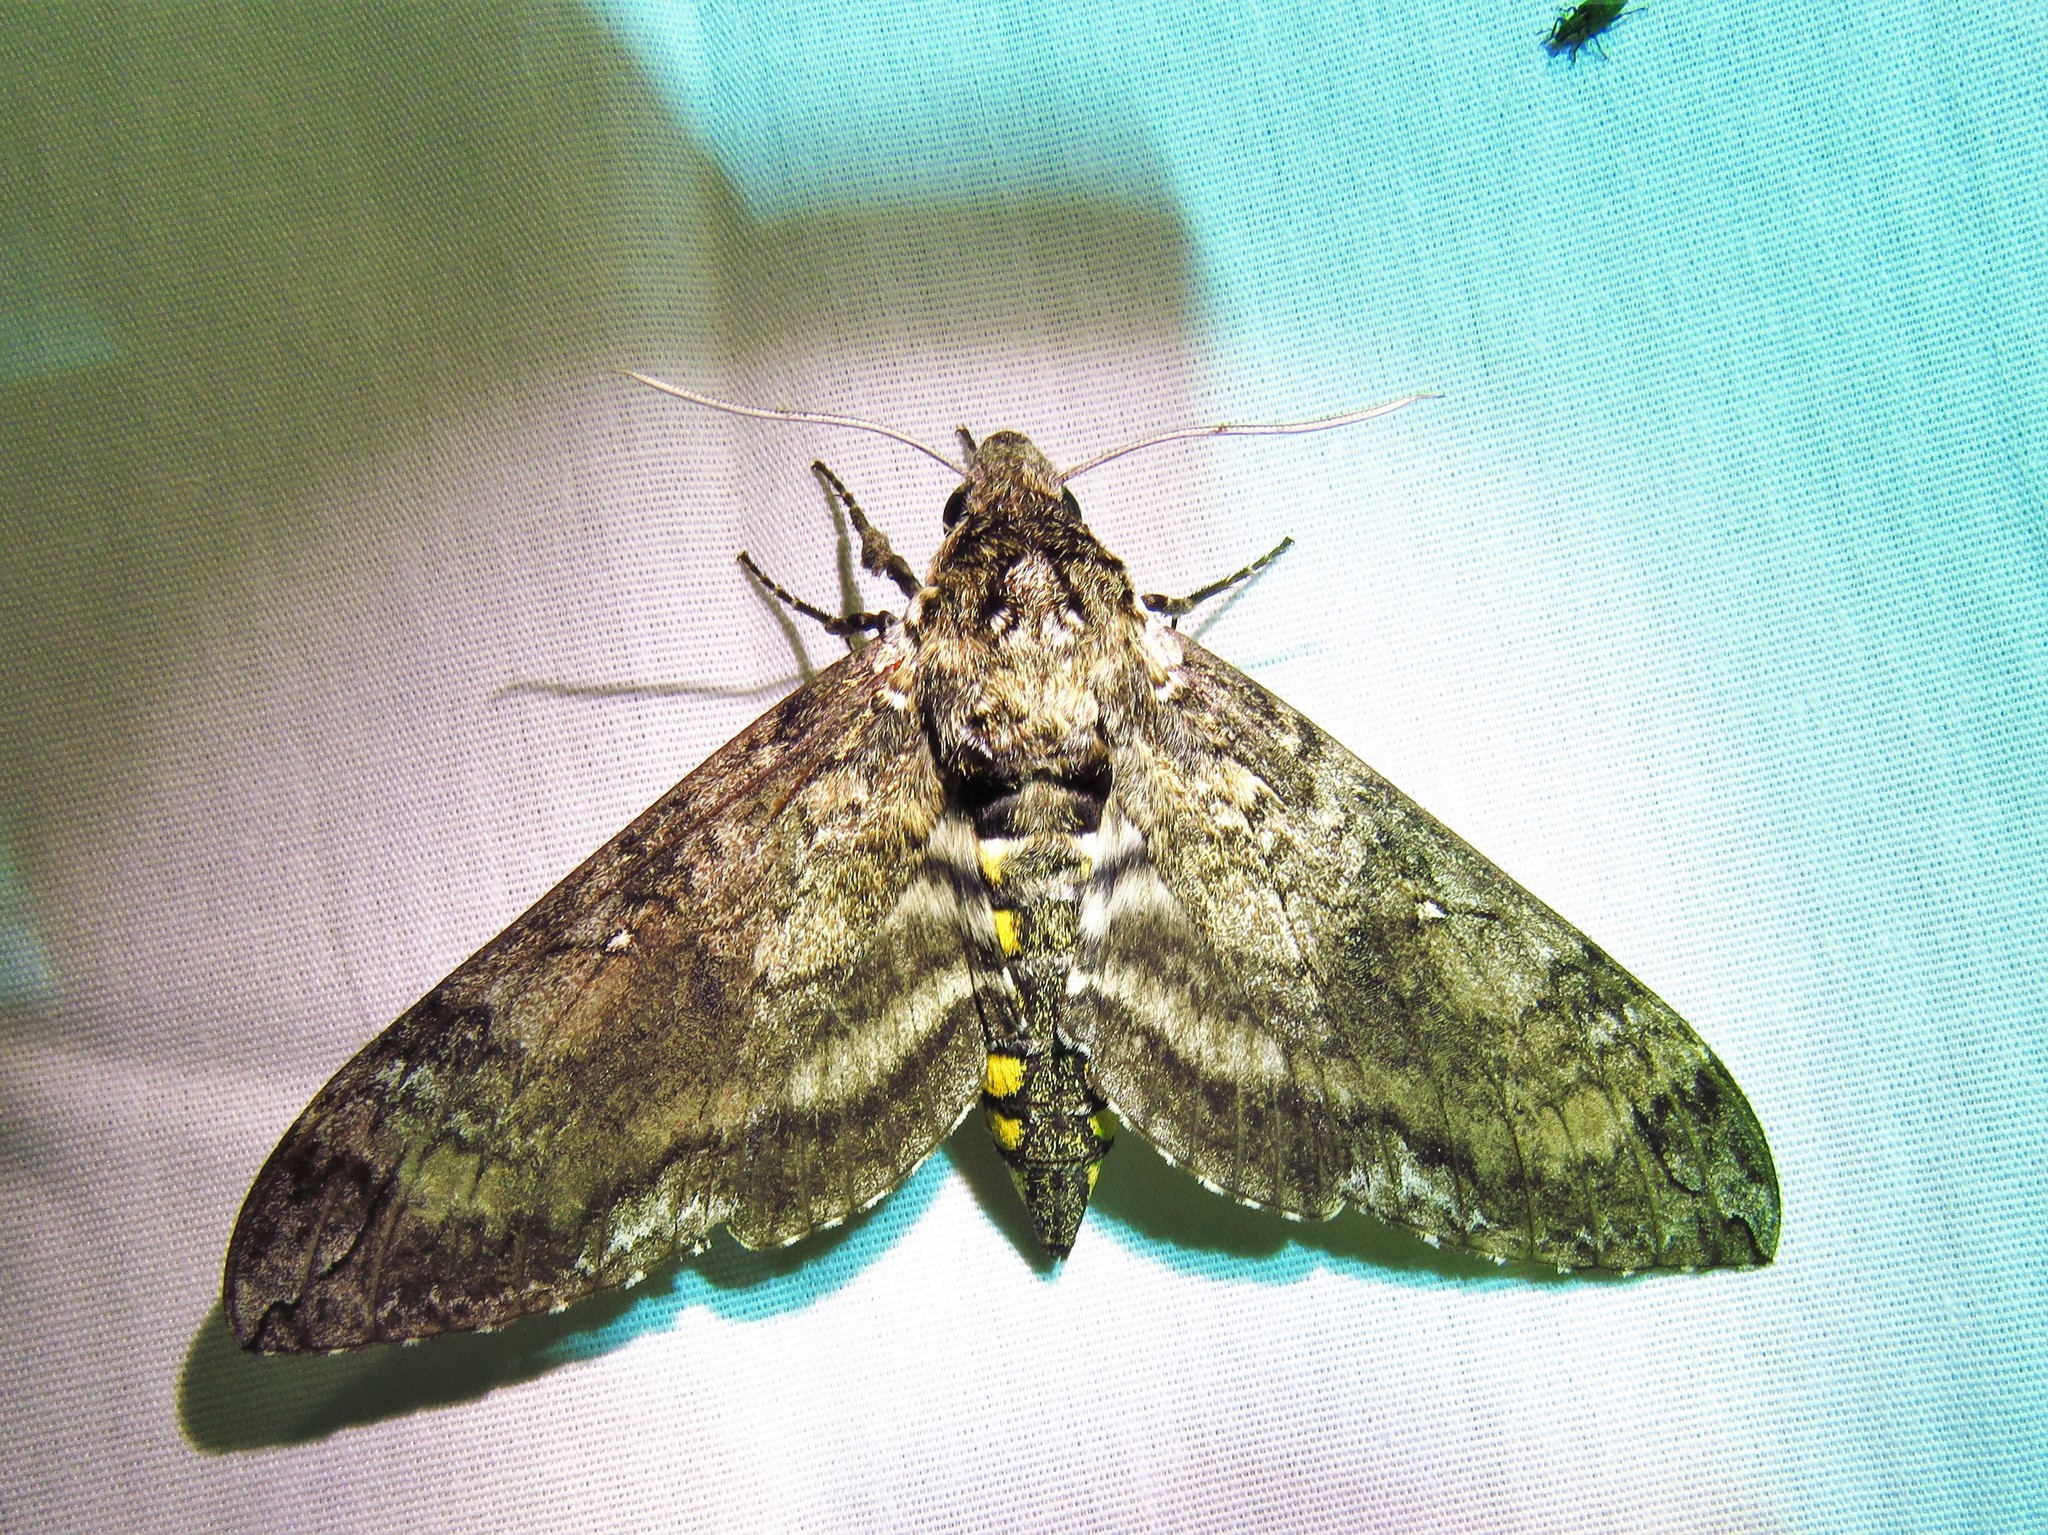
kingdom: Animalia
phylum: Arthropoda
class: Insecta
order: Lepidoptera
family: Sphingidae
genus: Manduca
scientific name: Manduca sexta
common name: Carolina sphinx
